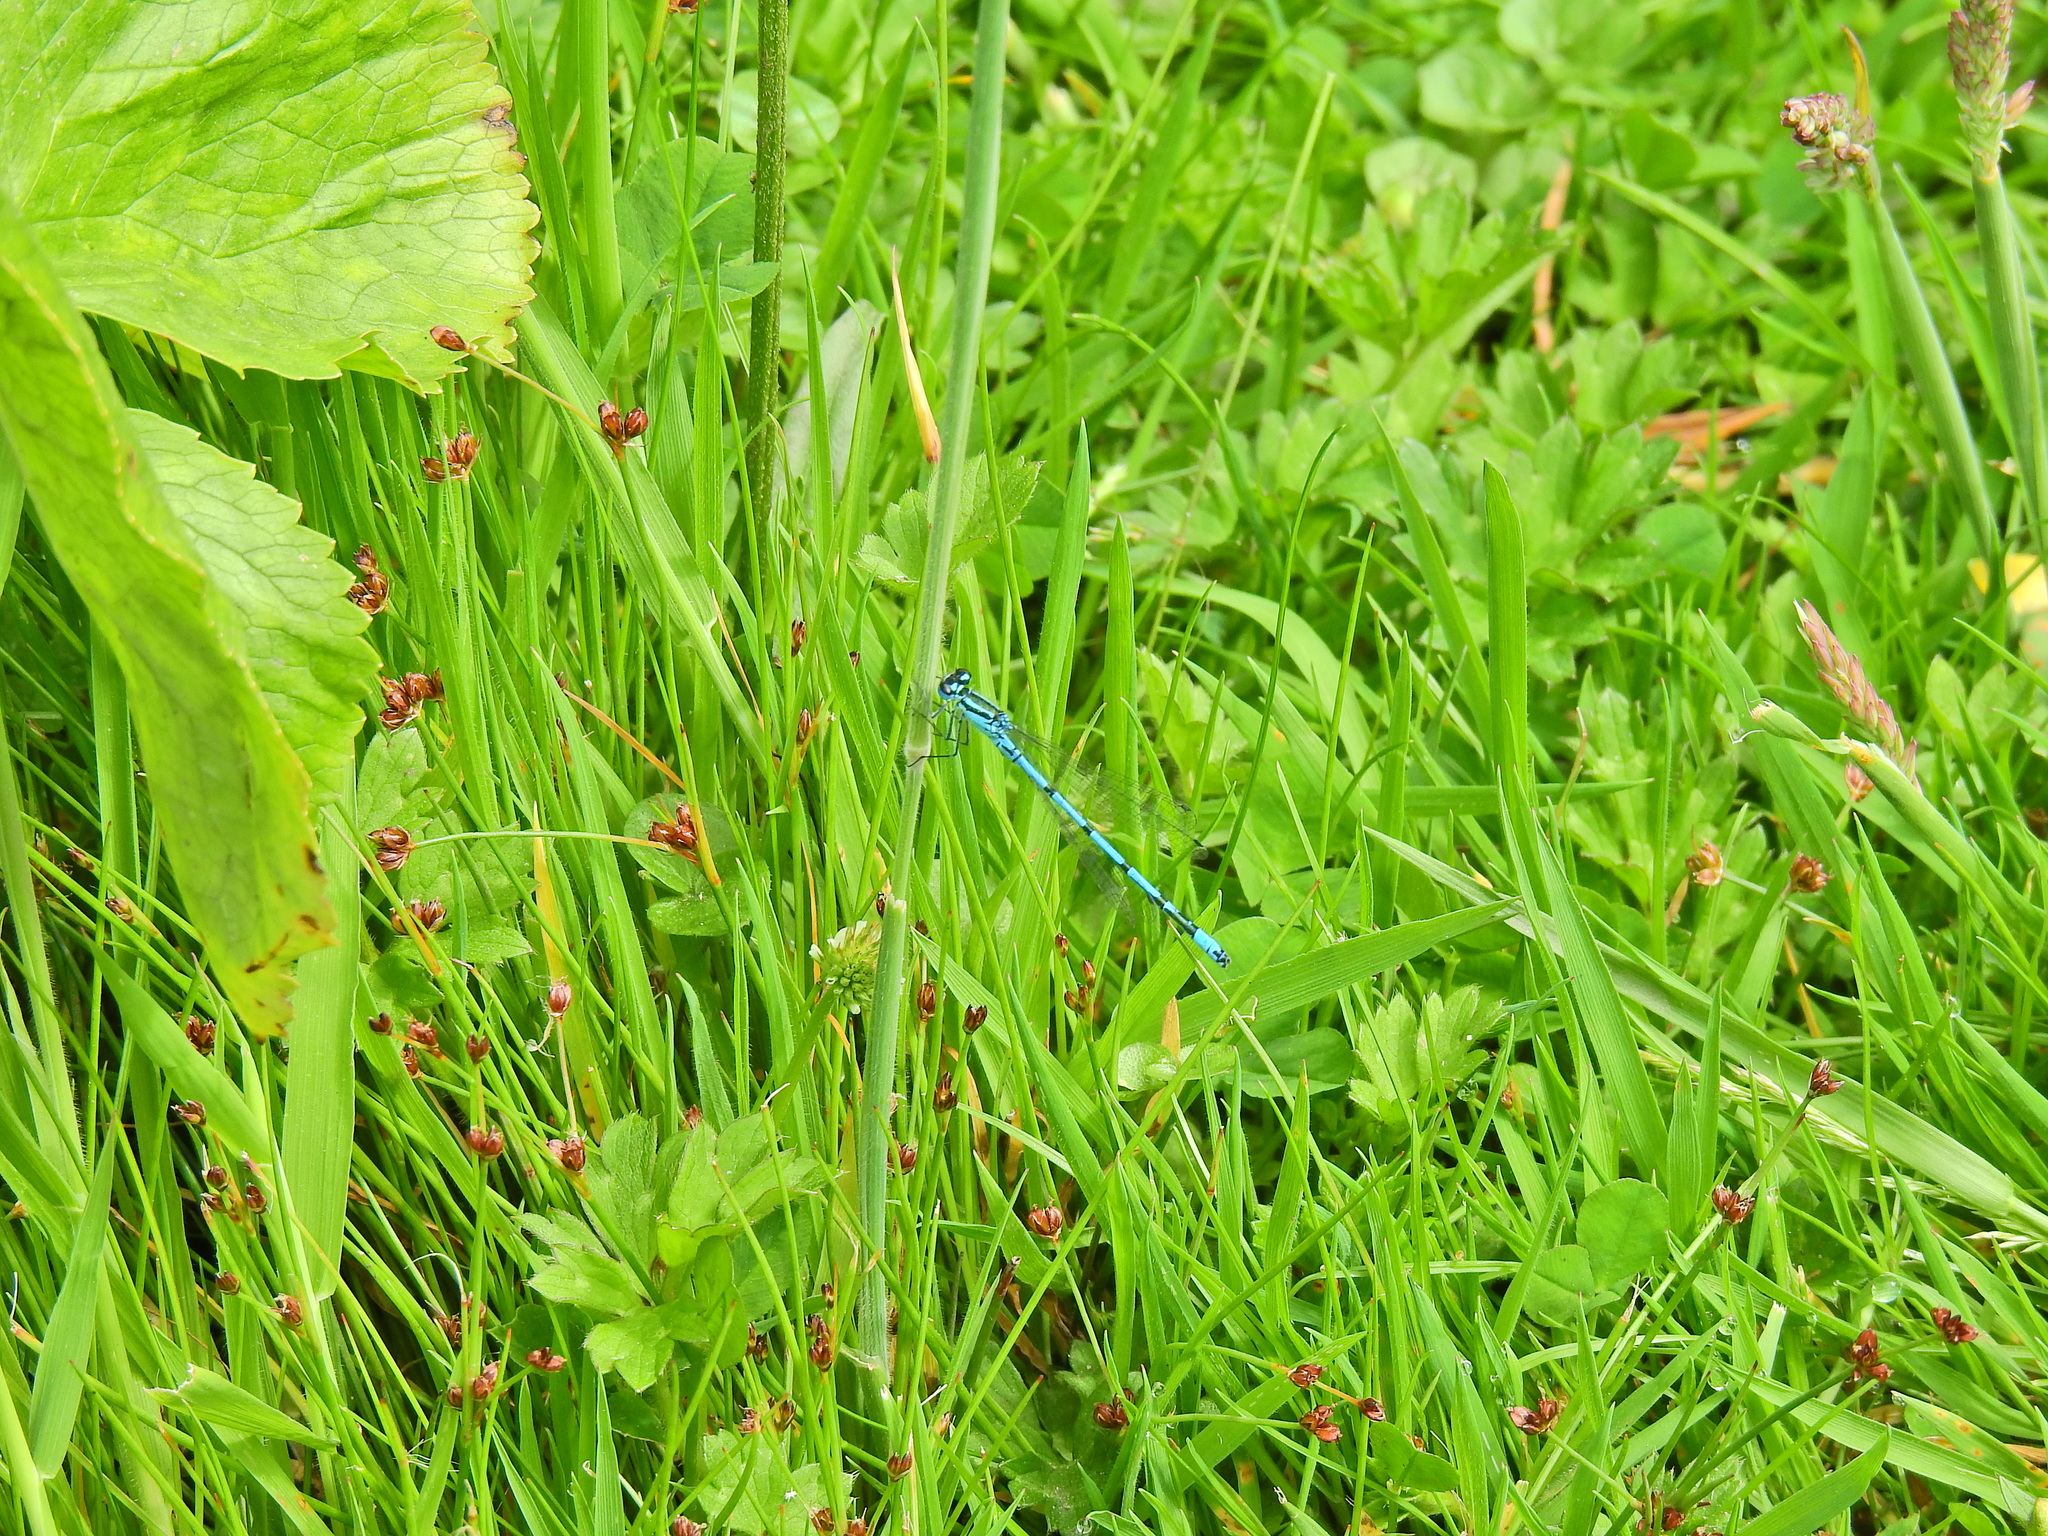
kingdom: Animalia
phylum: Arthropoda
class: Insecta
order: Odonata
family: Coenagrionidae
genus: Coenagrion
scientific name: Coenagrion puella
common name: Azure damselfly
